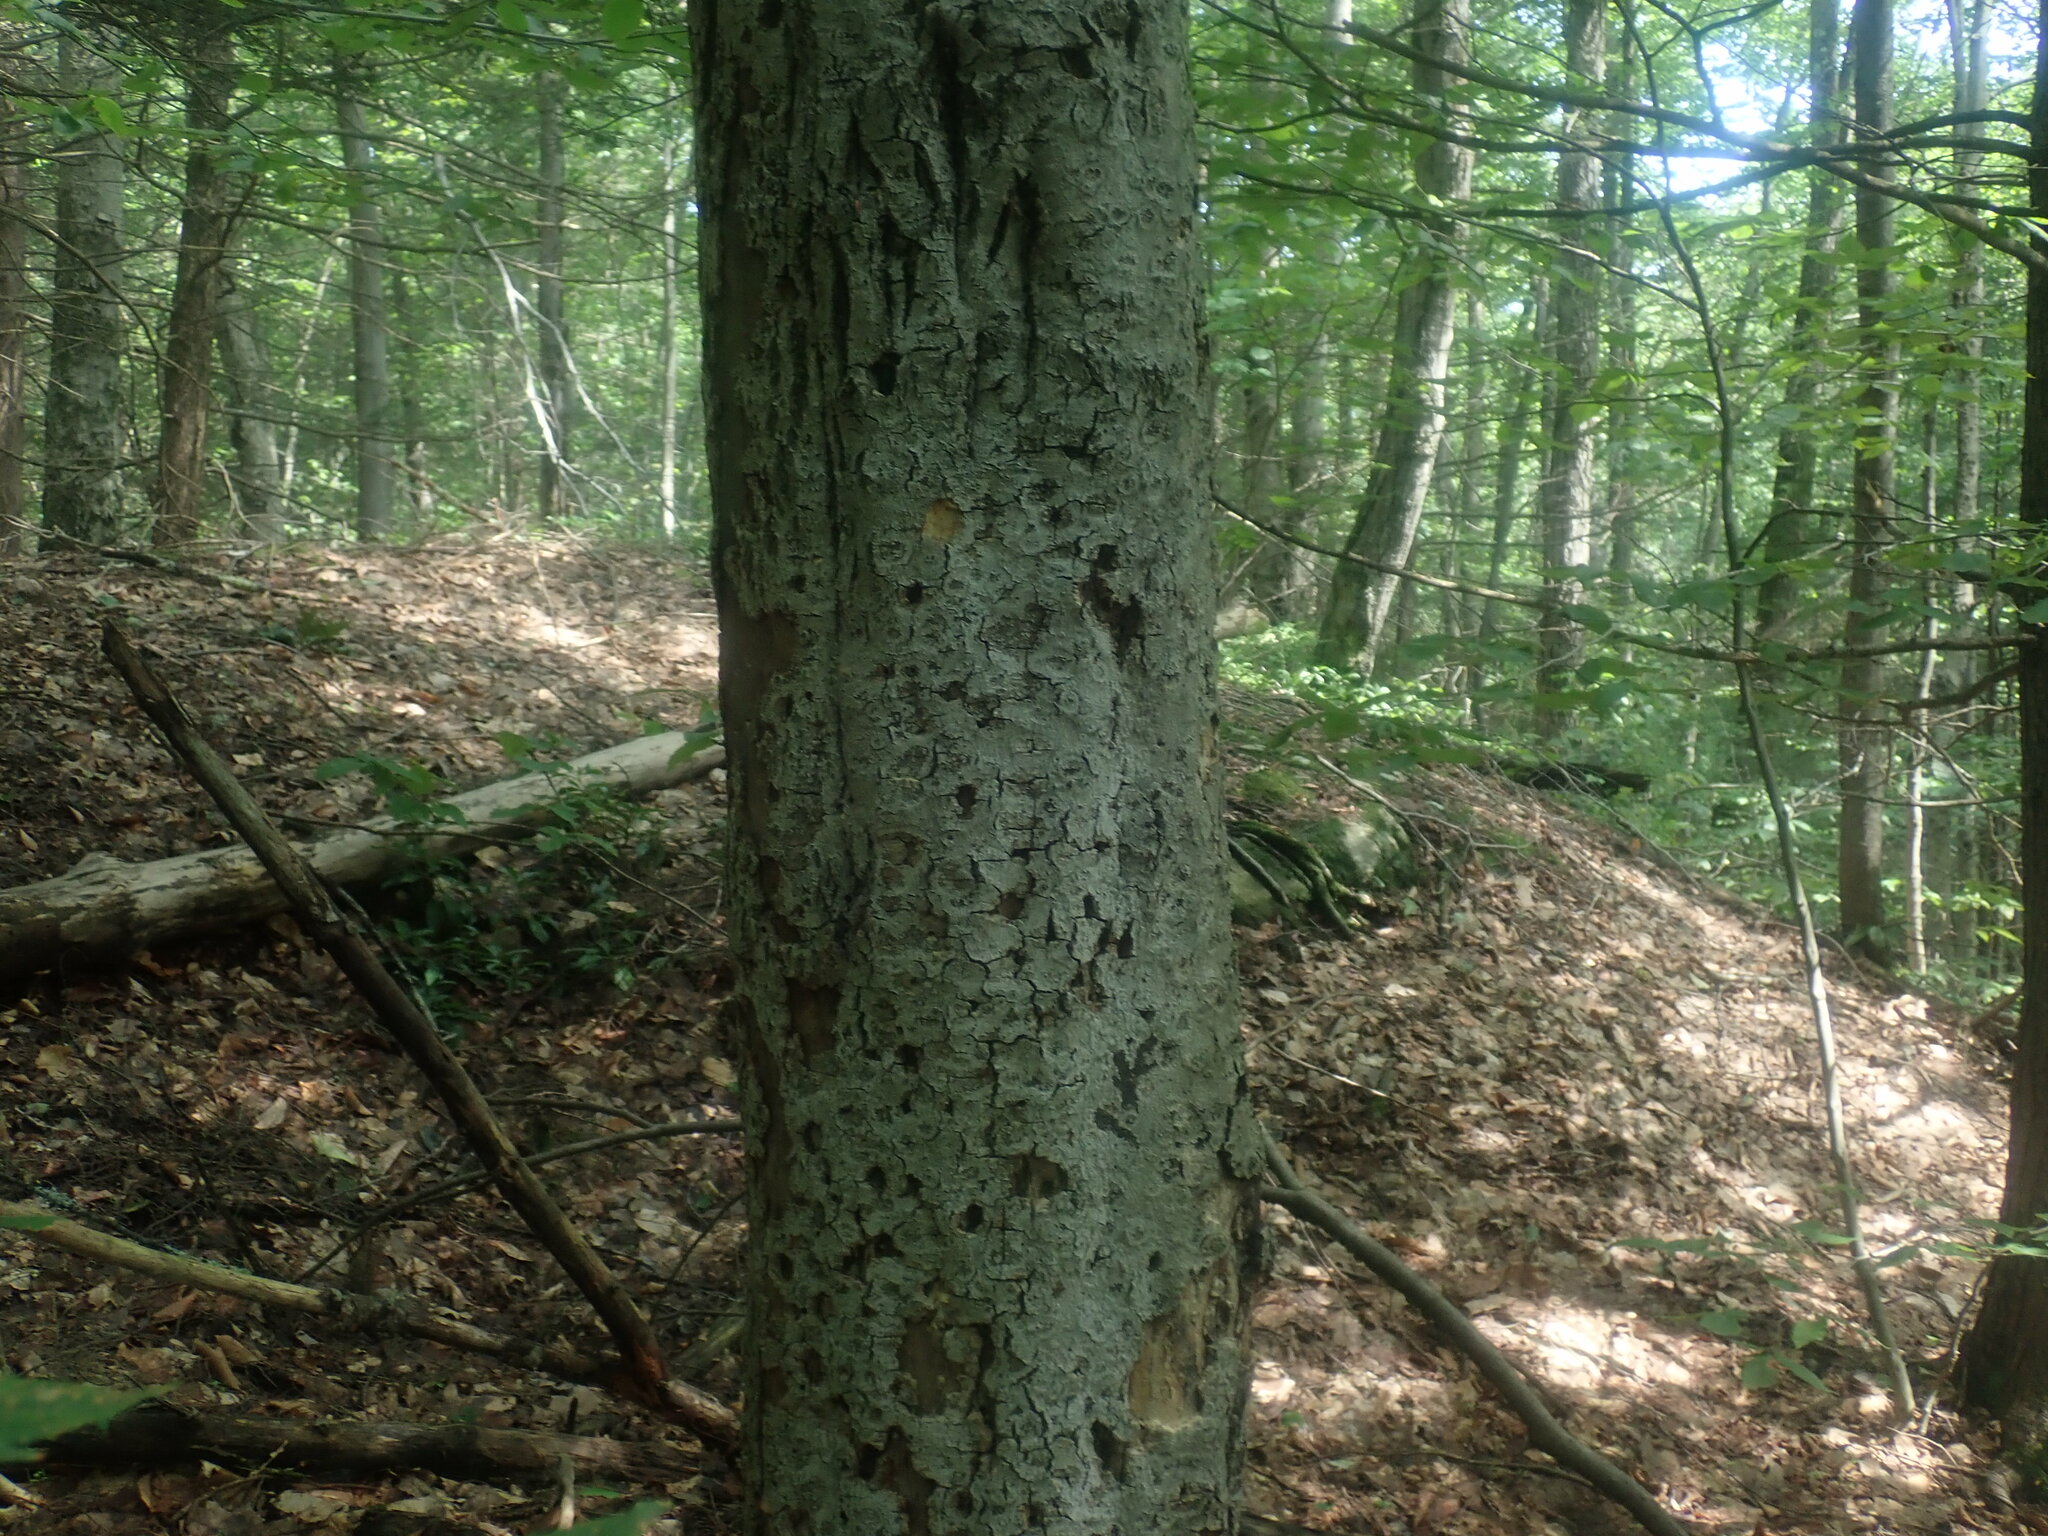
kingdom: Fungi
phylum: Ascomycota
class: Sordariomycetes
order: Hypocreales
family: Nectriaceae
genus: Neonectria
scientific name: Neonectria faginata
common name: Beech bark canker
